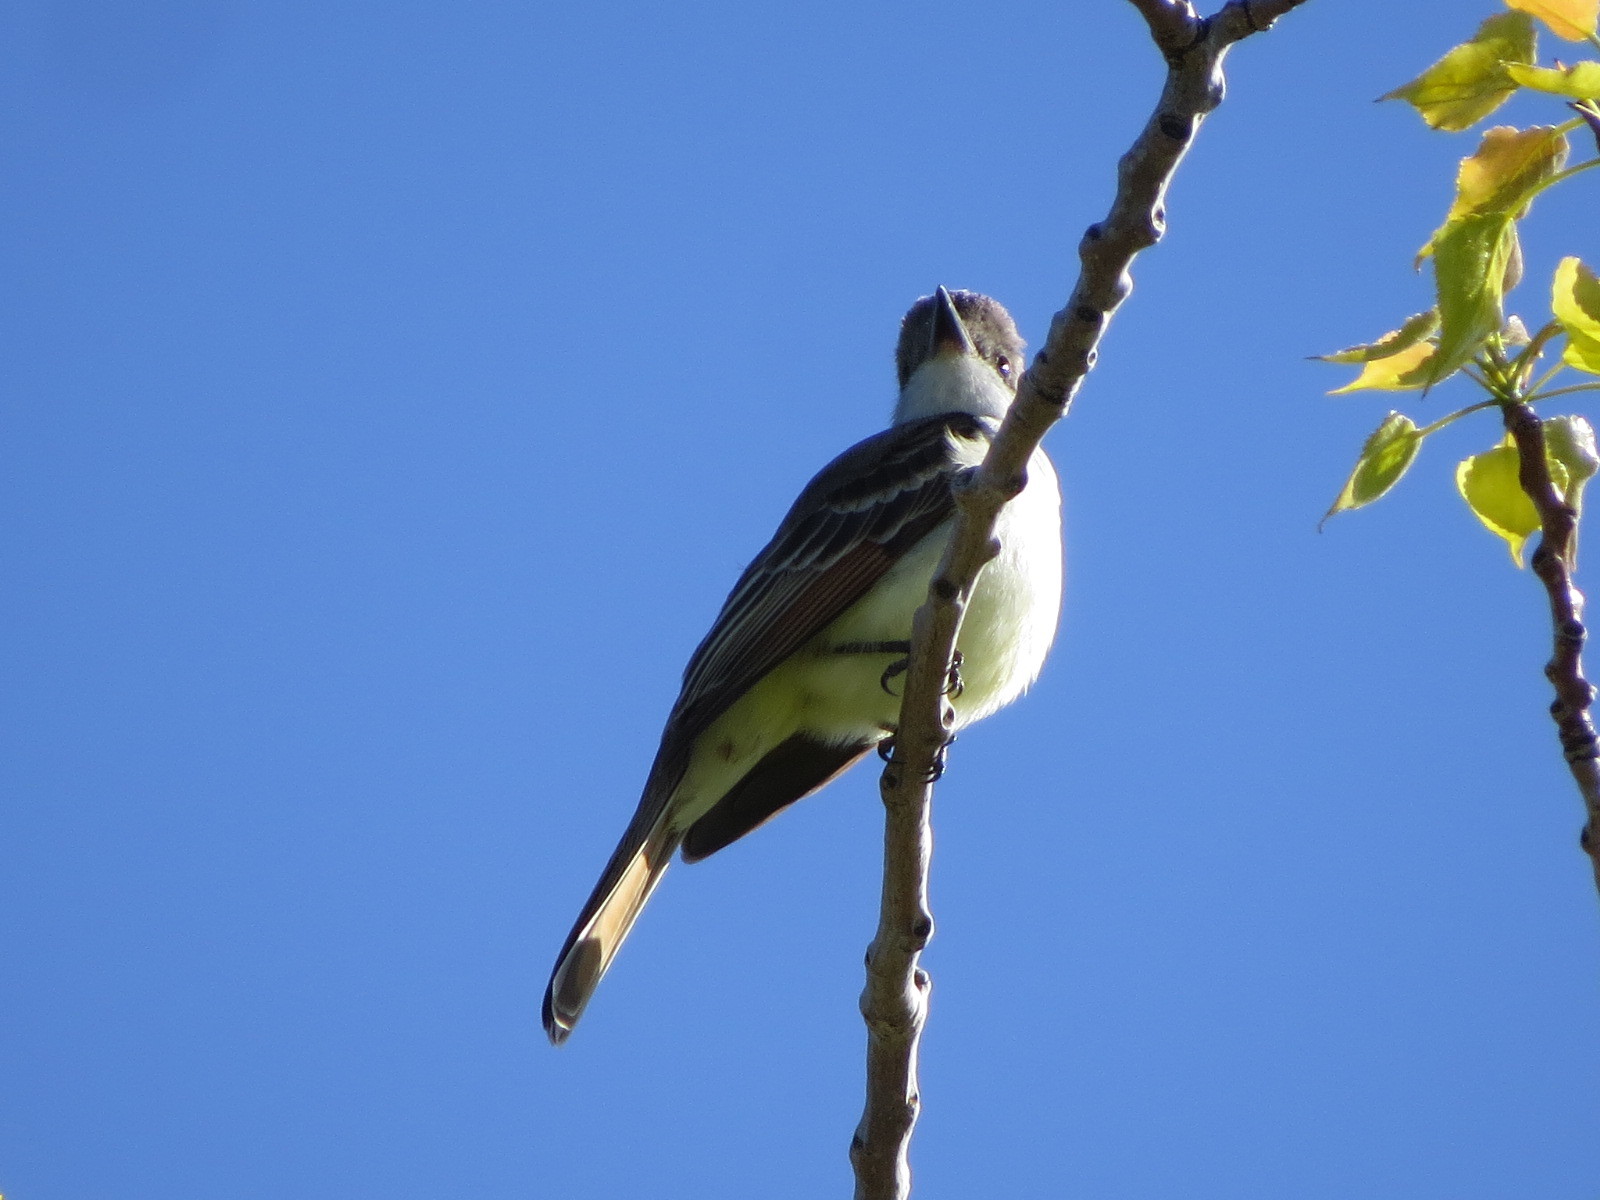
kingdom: Animalia
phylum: Chordata
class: Aves
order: Passeriformes
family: Tyrannidae
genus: Myiarchus
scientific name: Myiarchus cinerascens
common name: Ash-throated flycatcher
